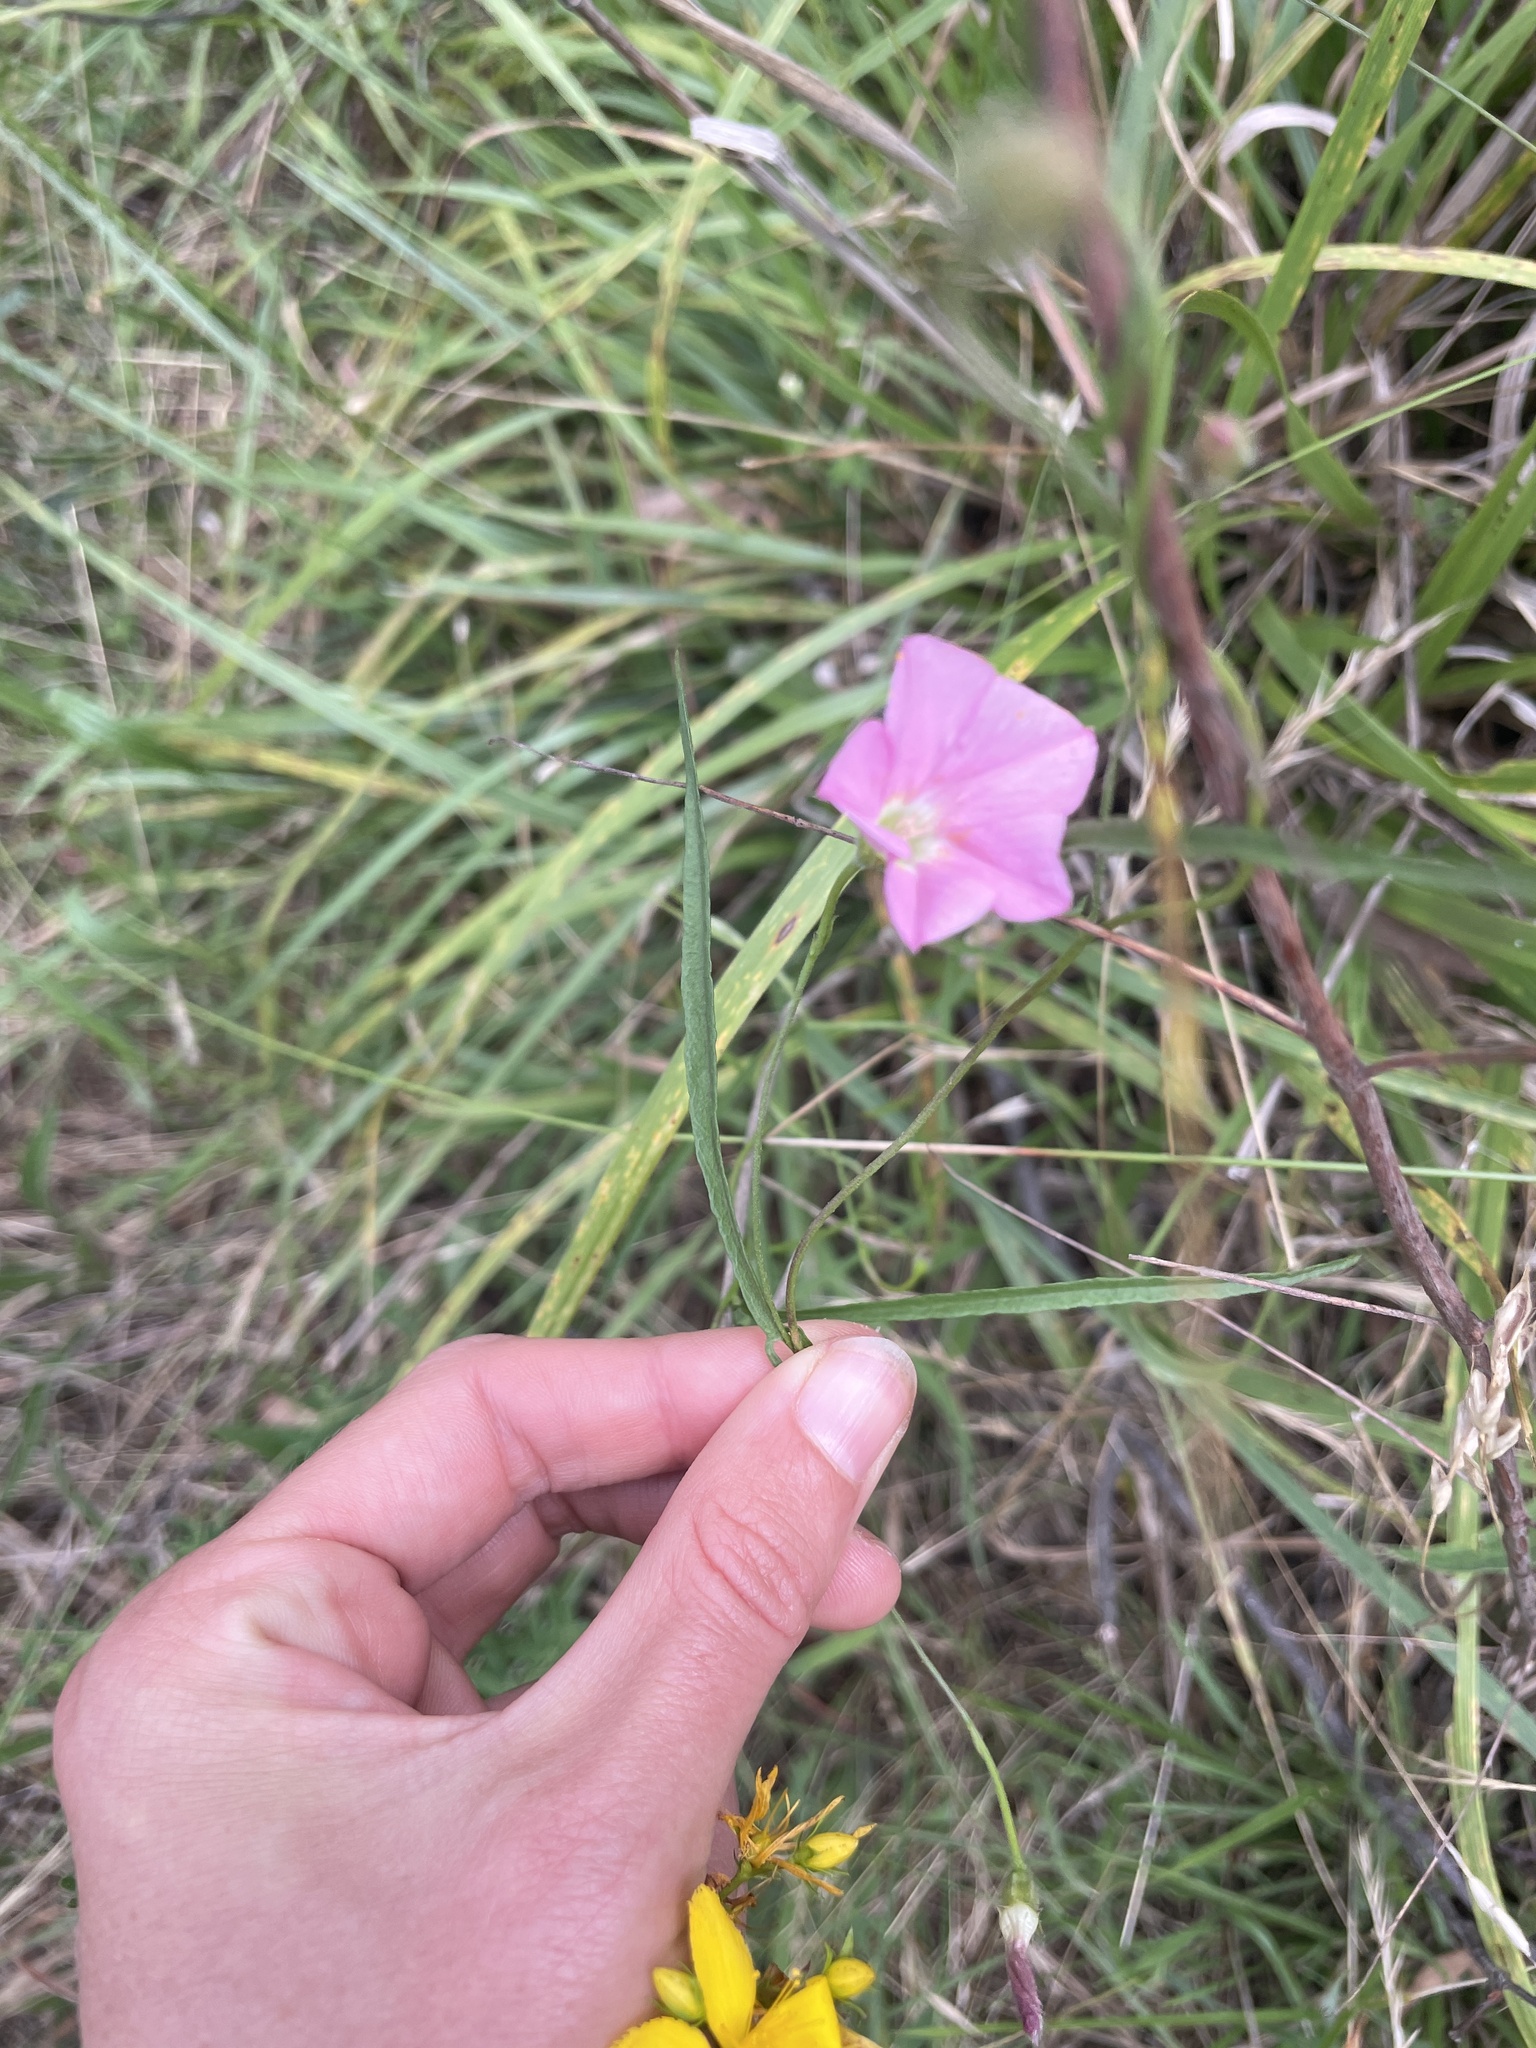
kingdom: Plantae
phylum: Tracheophyta
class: Magnoliopsida
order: Solanales
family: Convolvulaceae
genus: Convolvulus
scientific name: Convolvulus angustissimus
